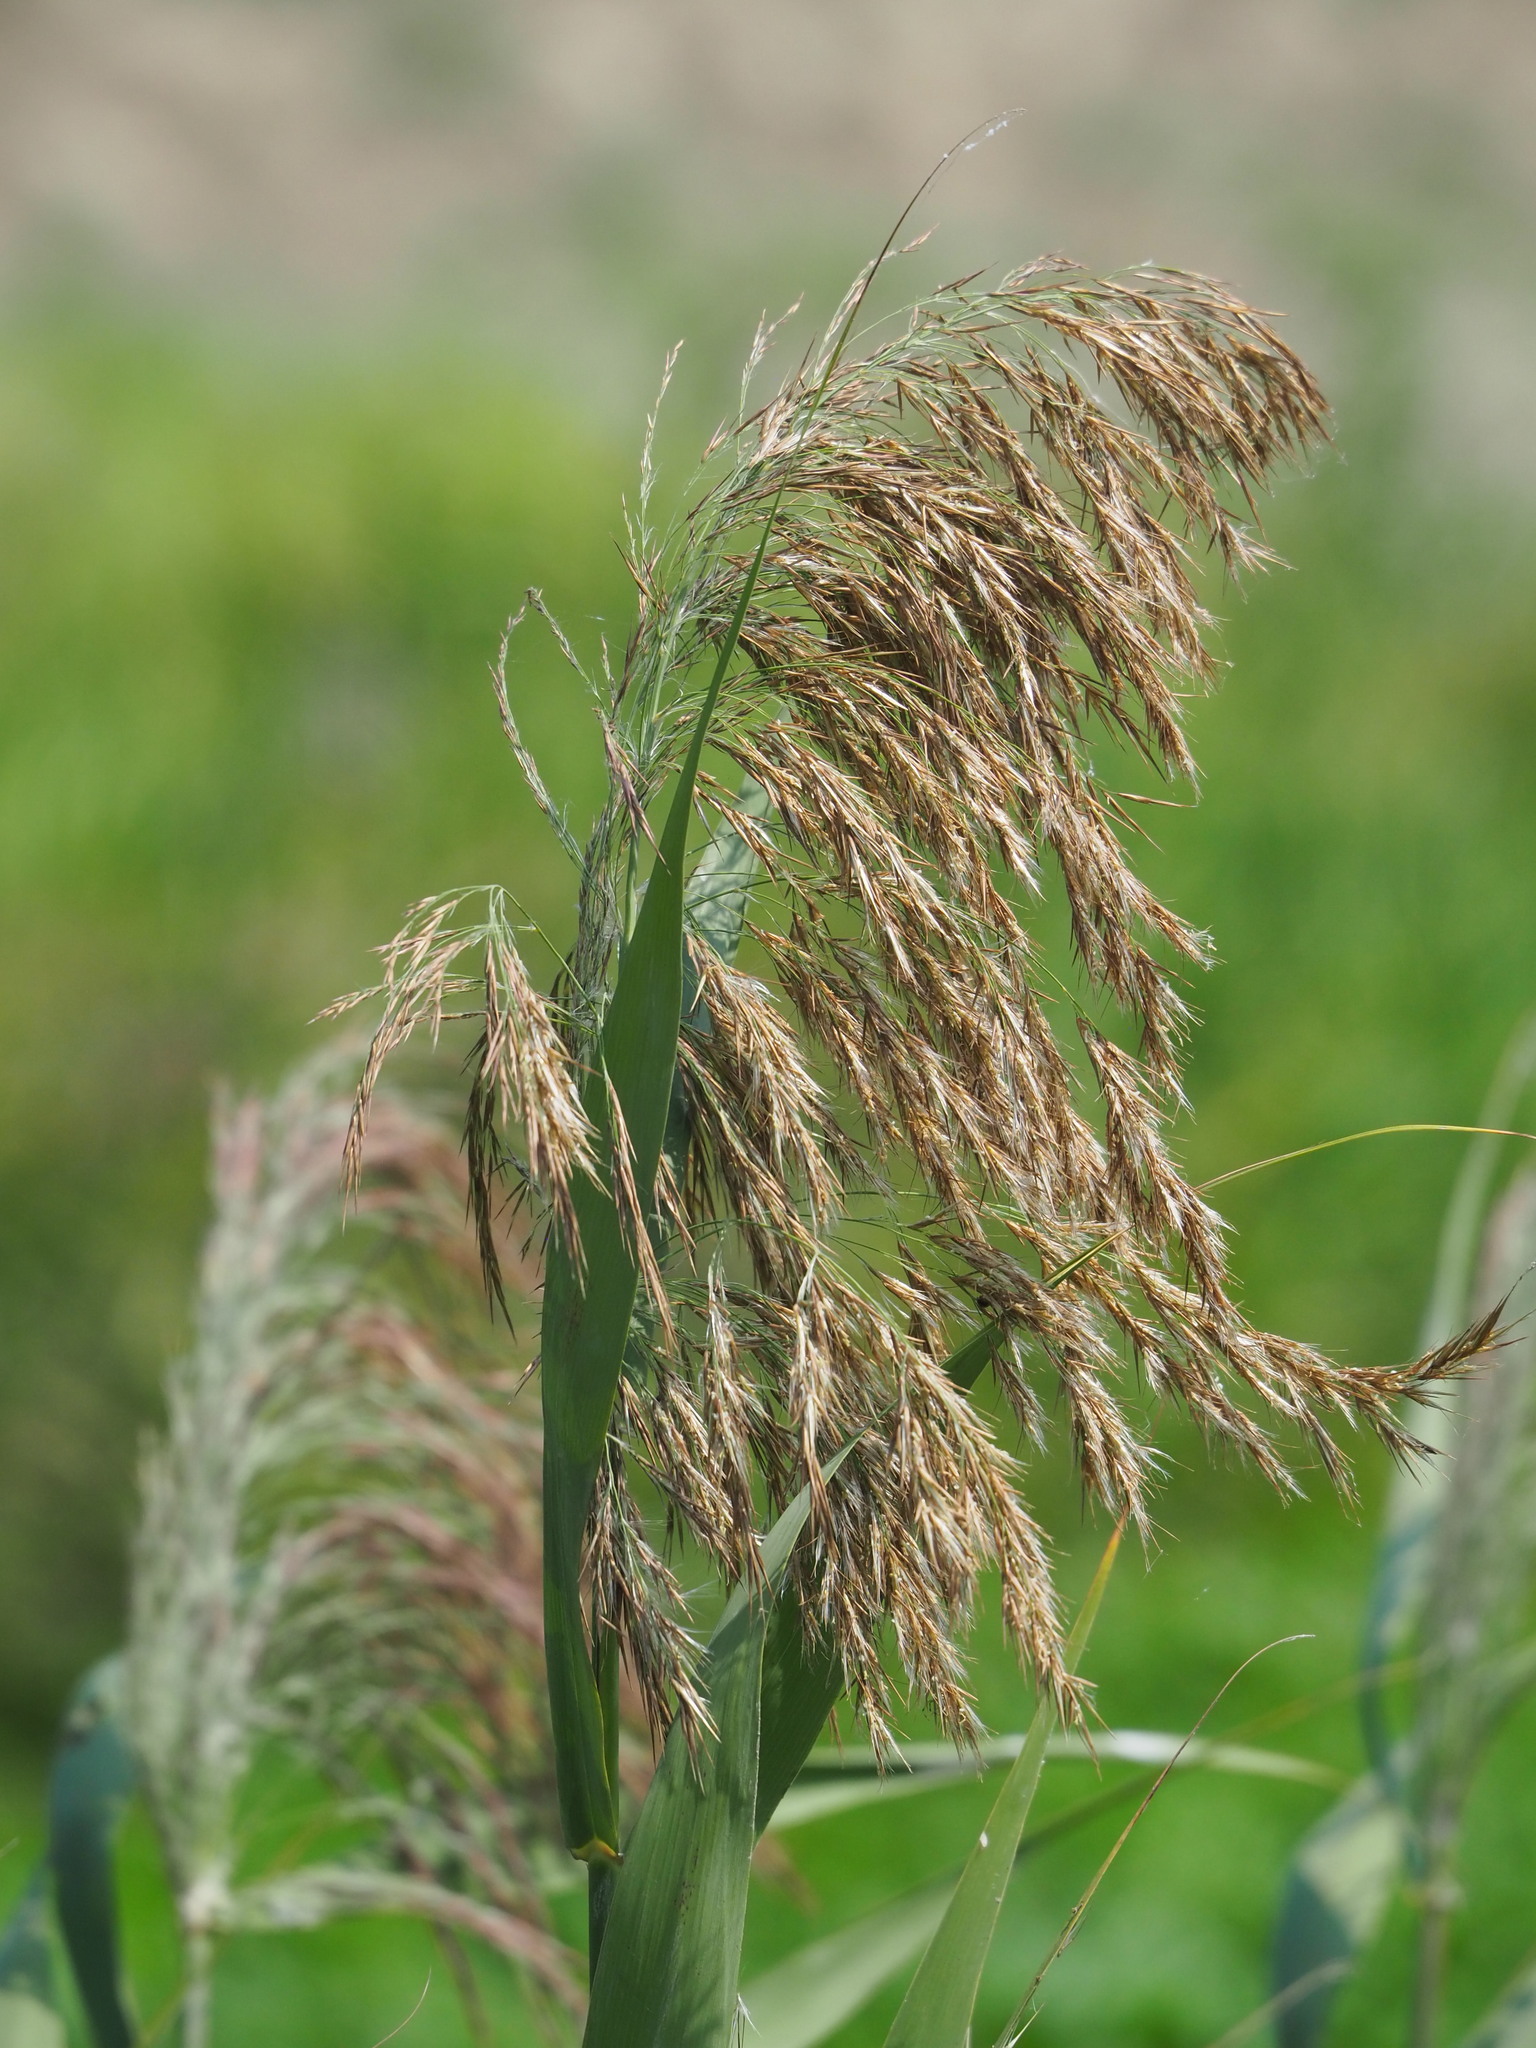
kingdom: Plantae
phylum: Tracheophyta
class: Liliopsida
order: Poales
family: Poaceae
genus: Phragmites
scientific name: Phragmites australis
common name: Common reed
